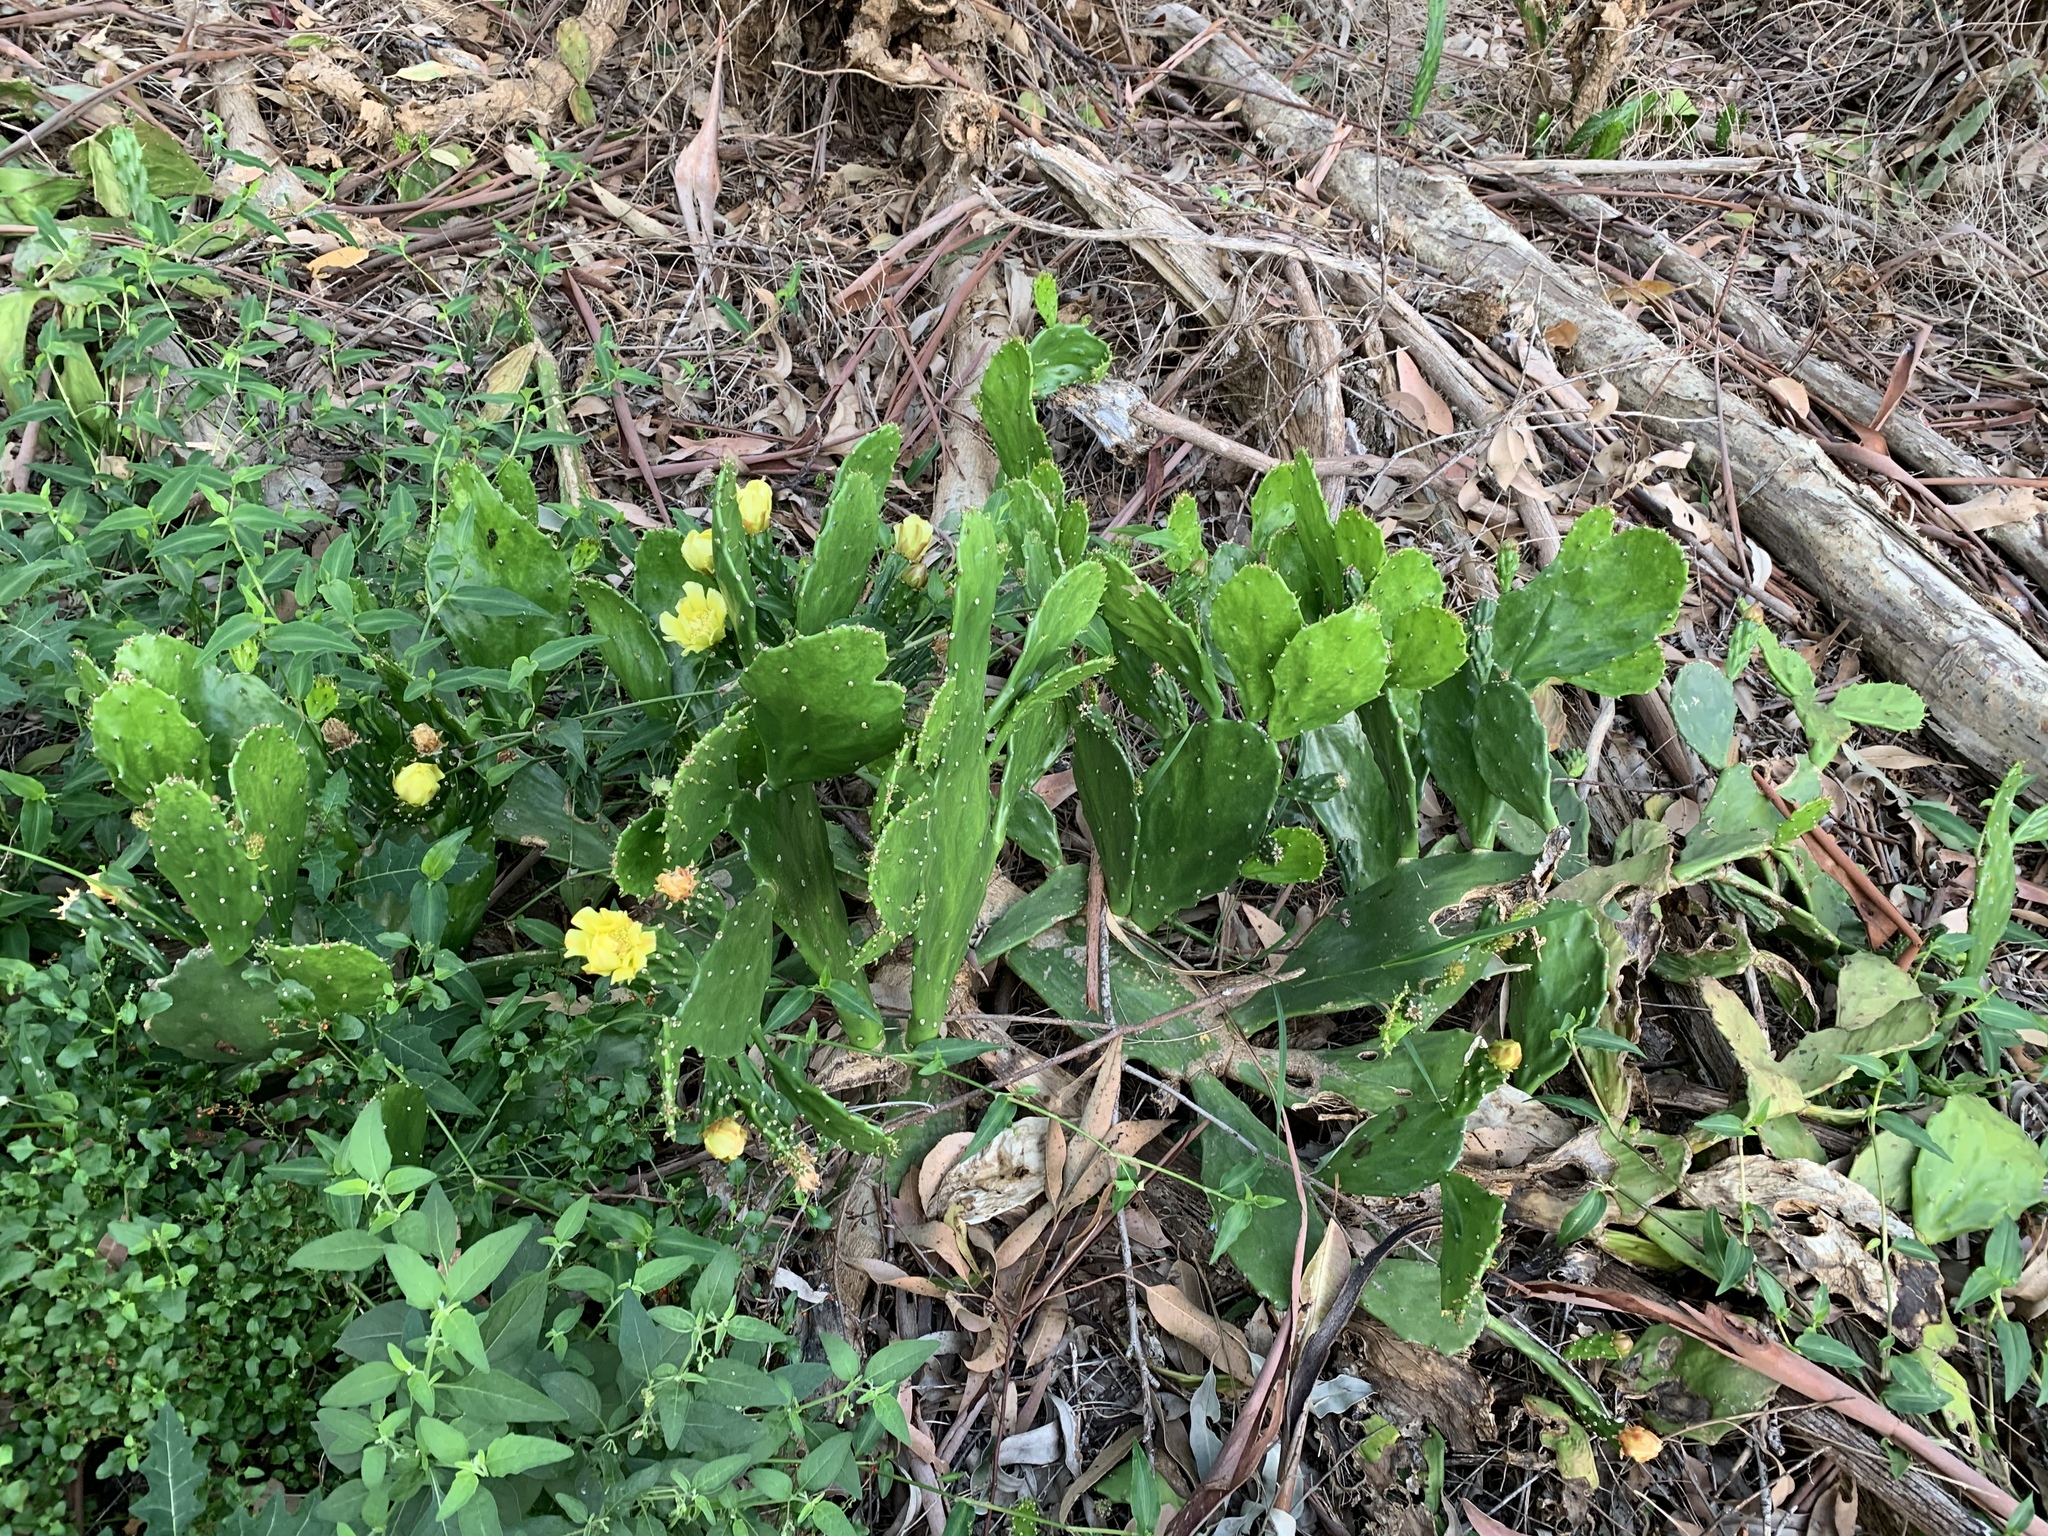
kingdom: Plantae
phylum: Tracheophyta
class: Magnoliopsida
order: Caryophyllales
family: Cactaceae
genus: Opuntia
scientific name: Opuntia monacantha
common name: Common pricklypear
